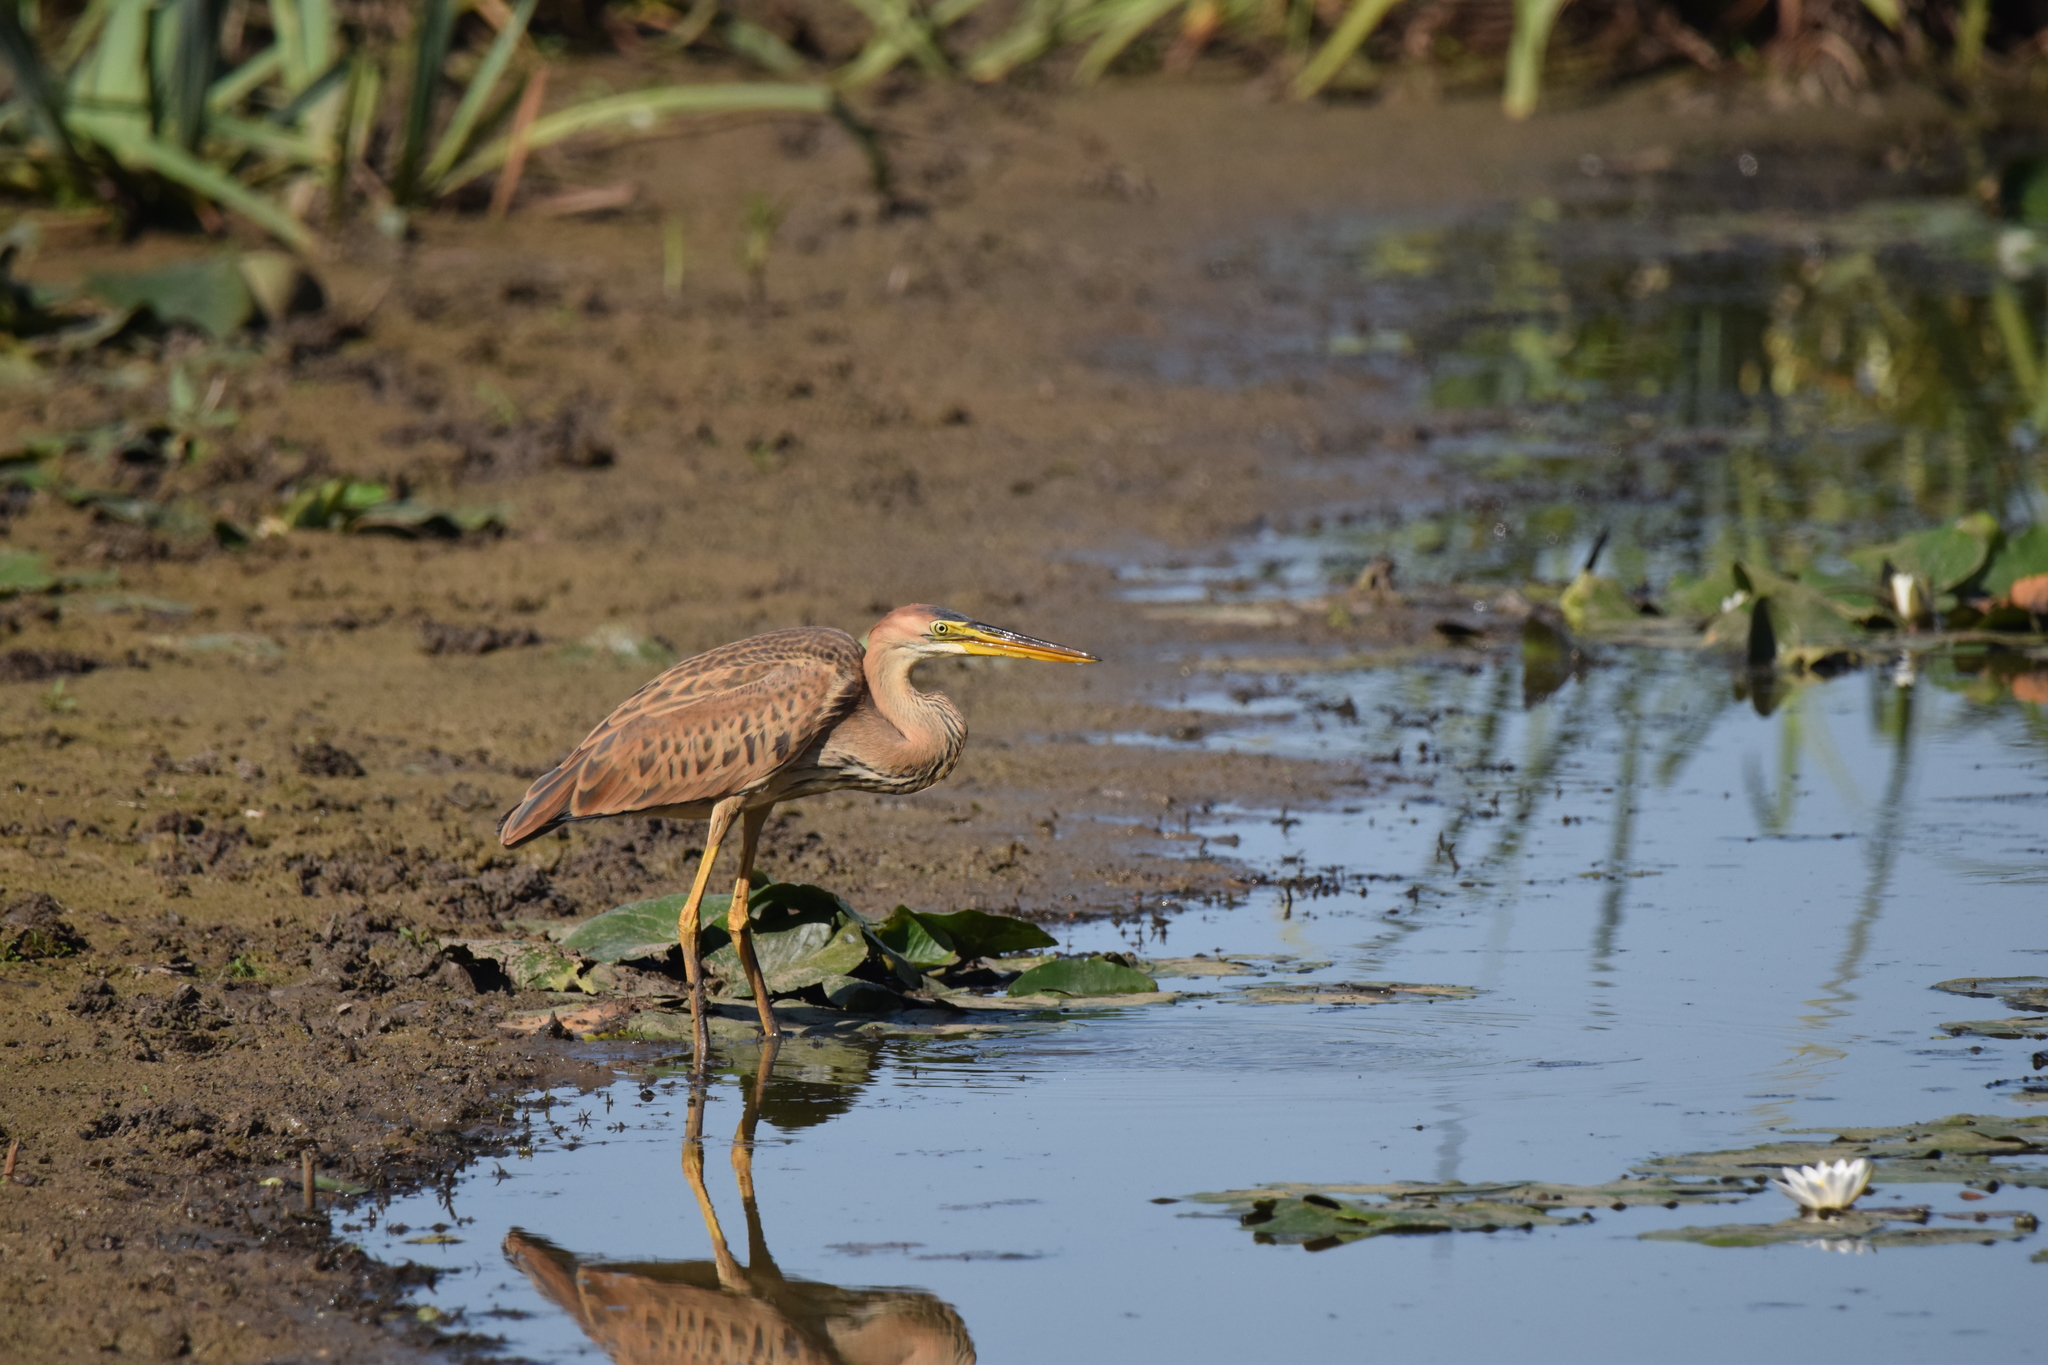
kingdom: Animalia
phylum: Chordata
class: Aves
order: Pelecaniformes
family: Ardeidae
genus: Ardea
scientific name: Ardea purpurea
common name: Purple heron
